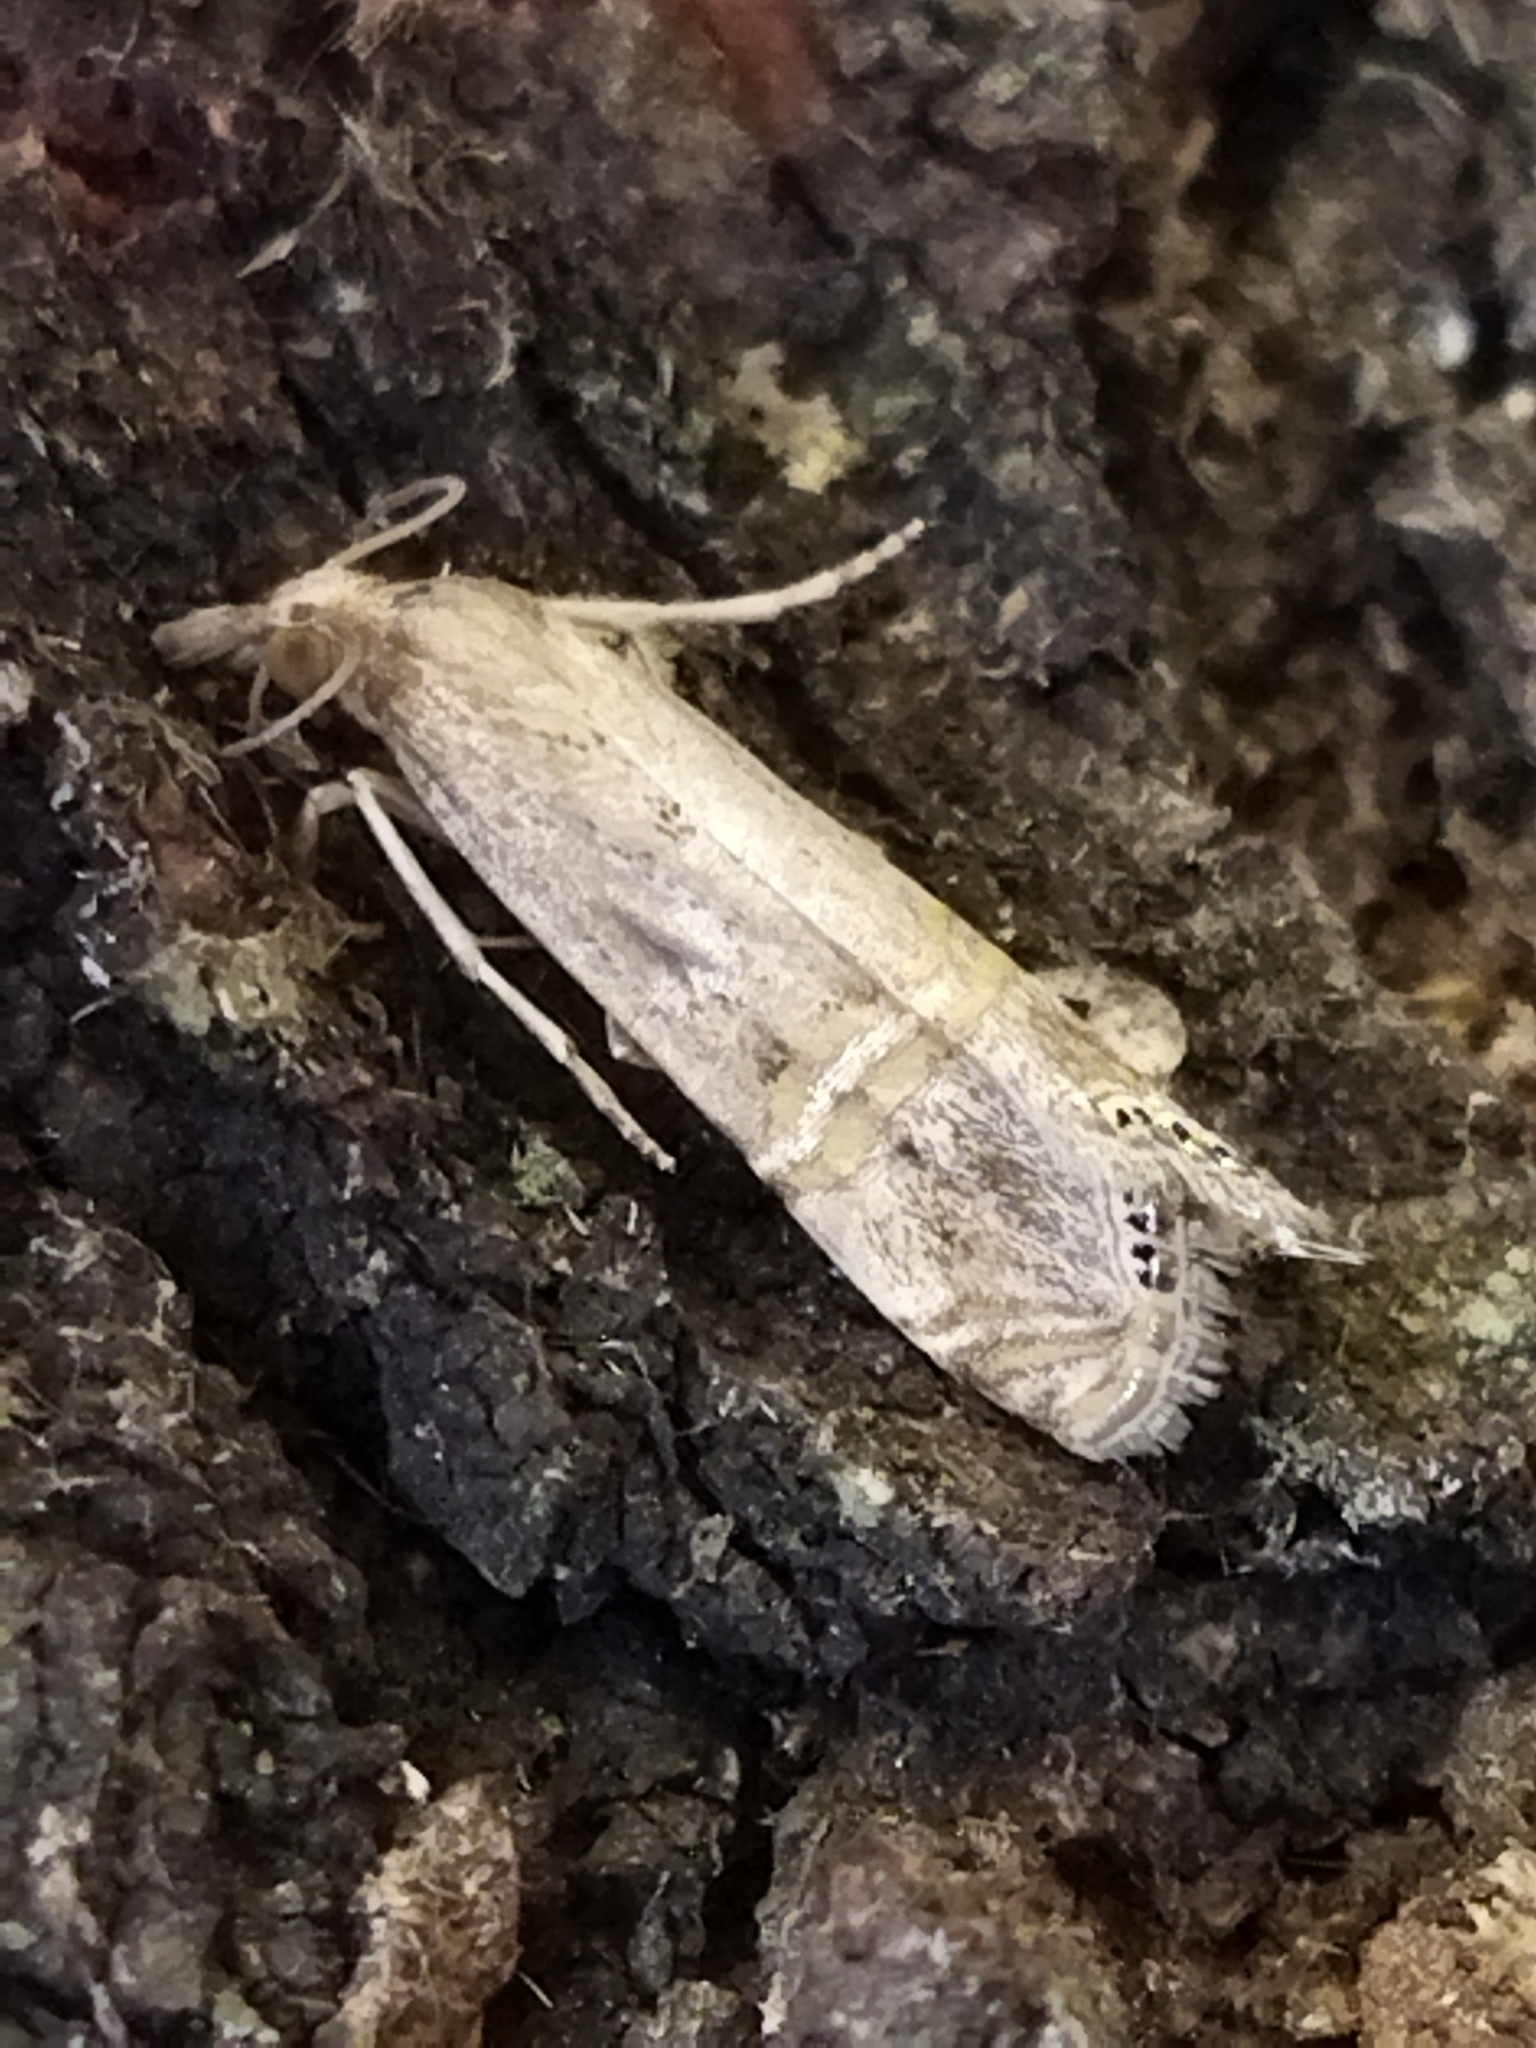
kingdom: Animalia
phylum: Arthropoda
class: Insecta
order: Lepidoptera
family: Crambidae
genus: Euchromius
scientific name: Euchromius ocellea
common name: Necklace veneer moth
